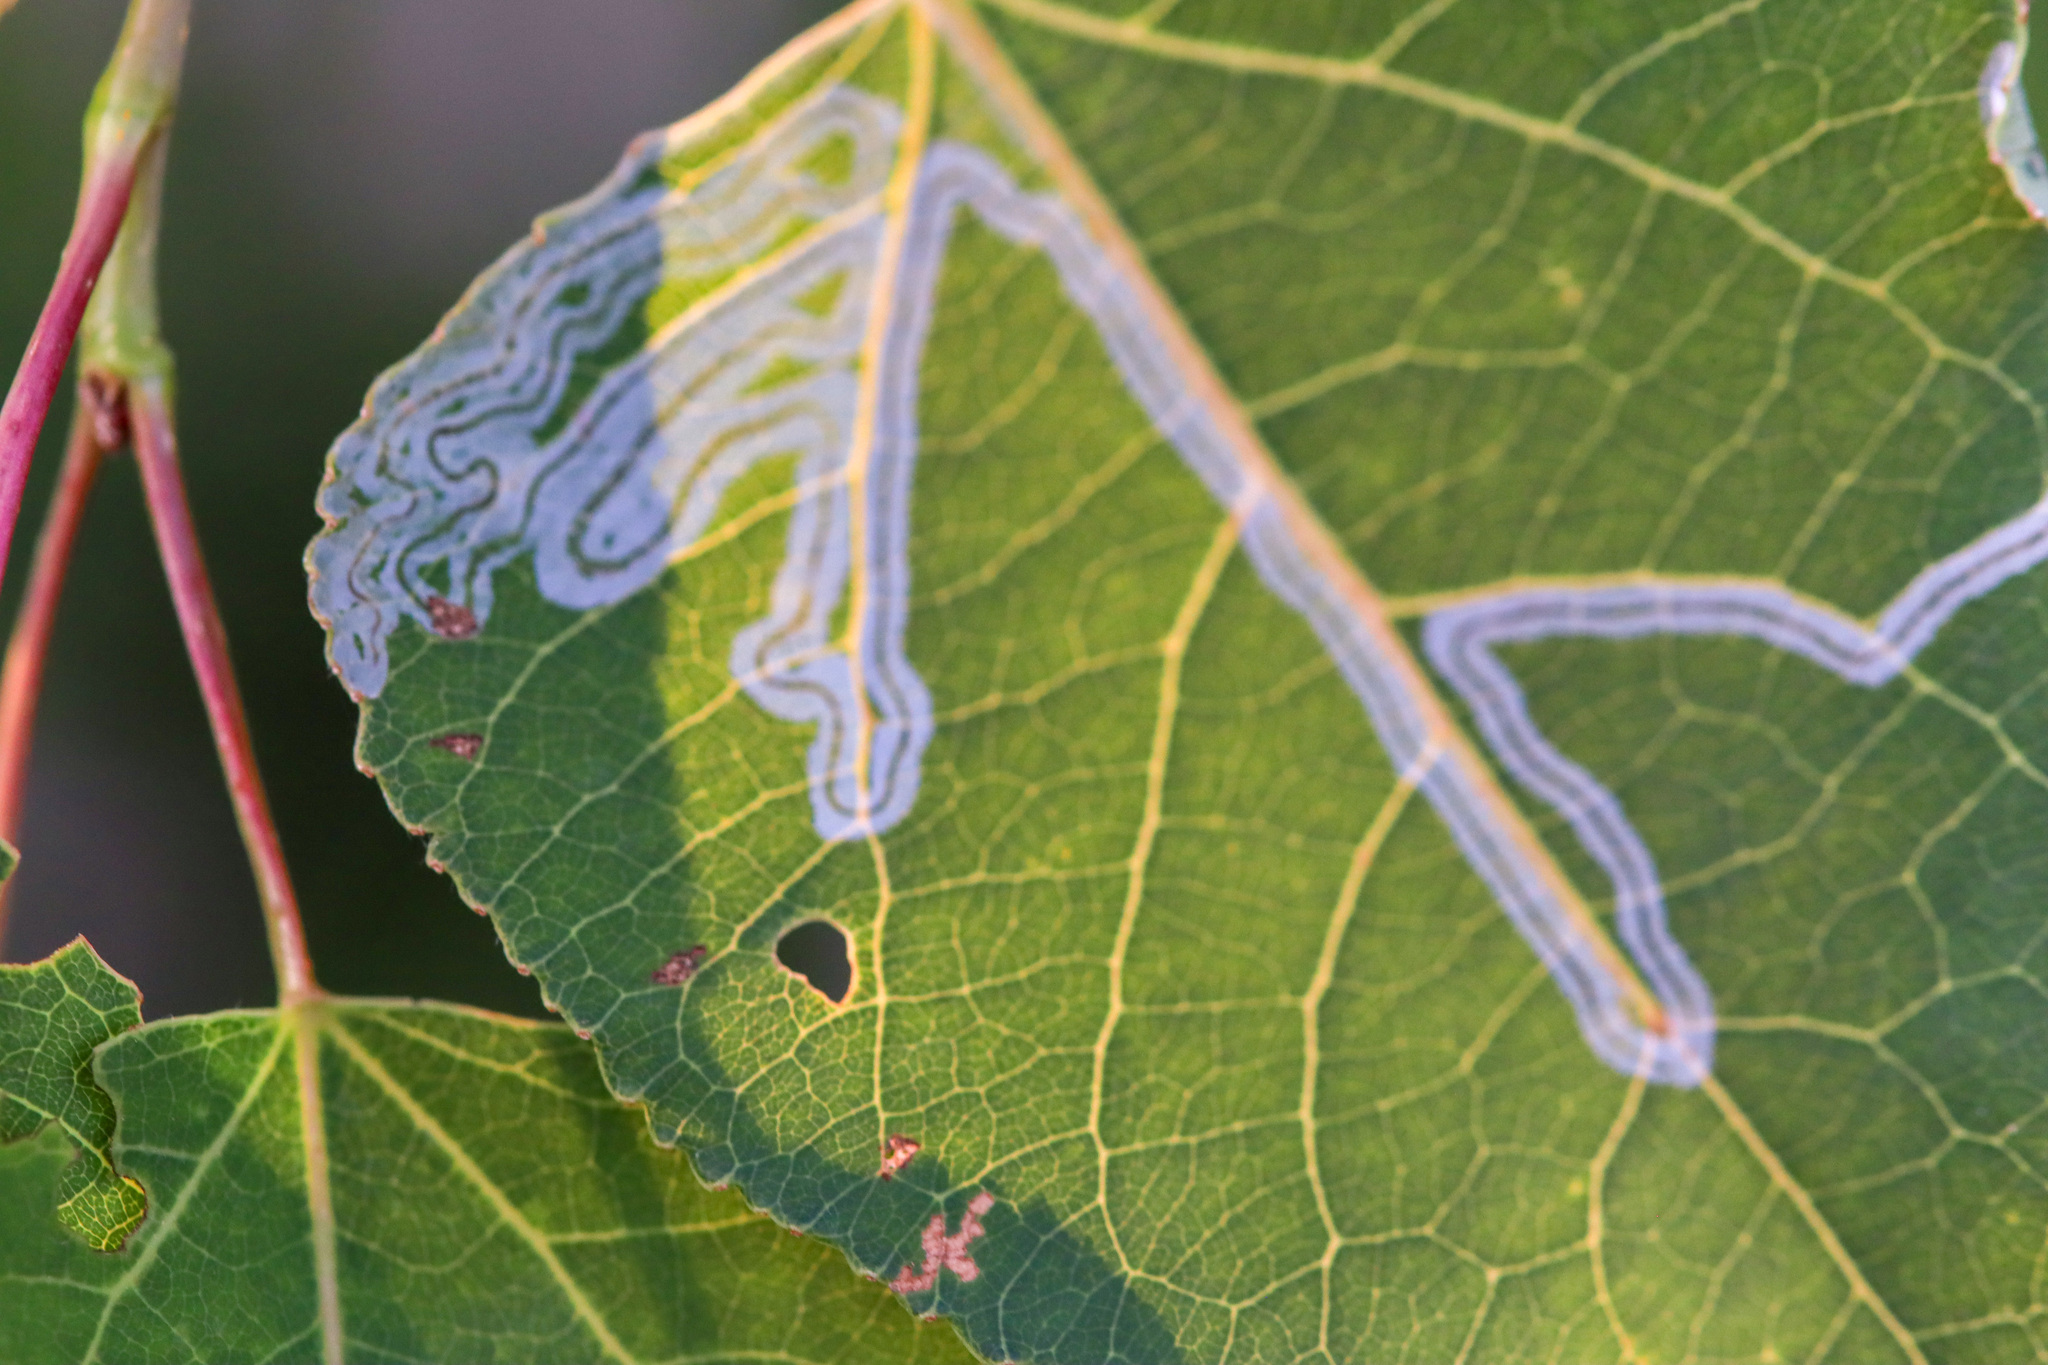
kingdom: Animalia
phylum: Arthropoda
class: Insecta
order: Lepidoptera
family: Gracillariidae
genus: Phyllocnistis
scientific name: Phyllocnistis populiella
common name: Aspen serpentine leafminer moth
